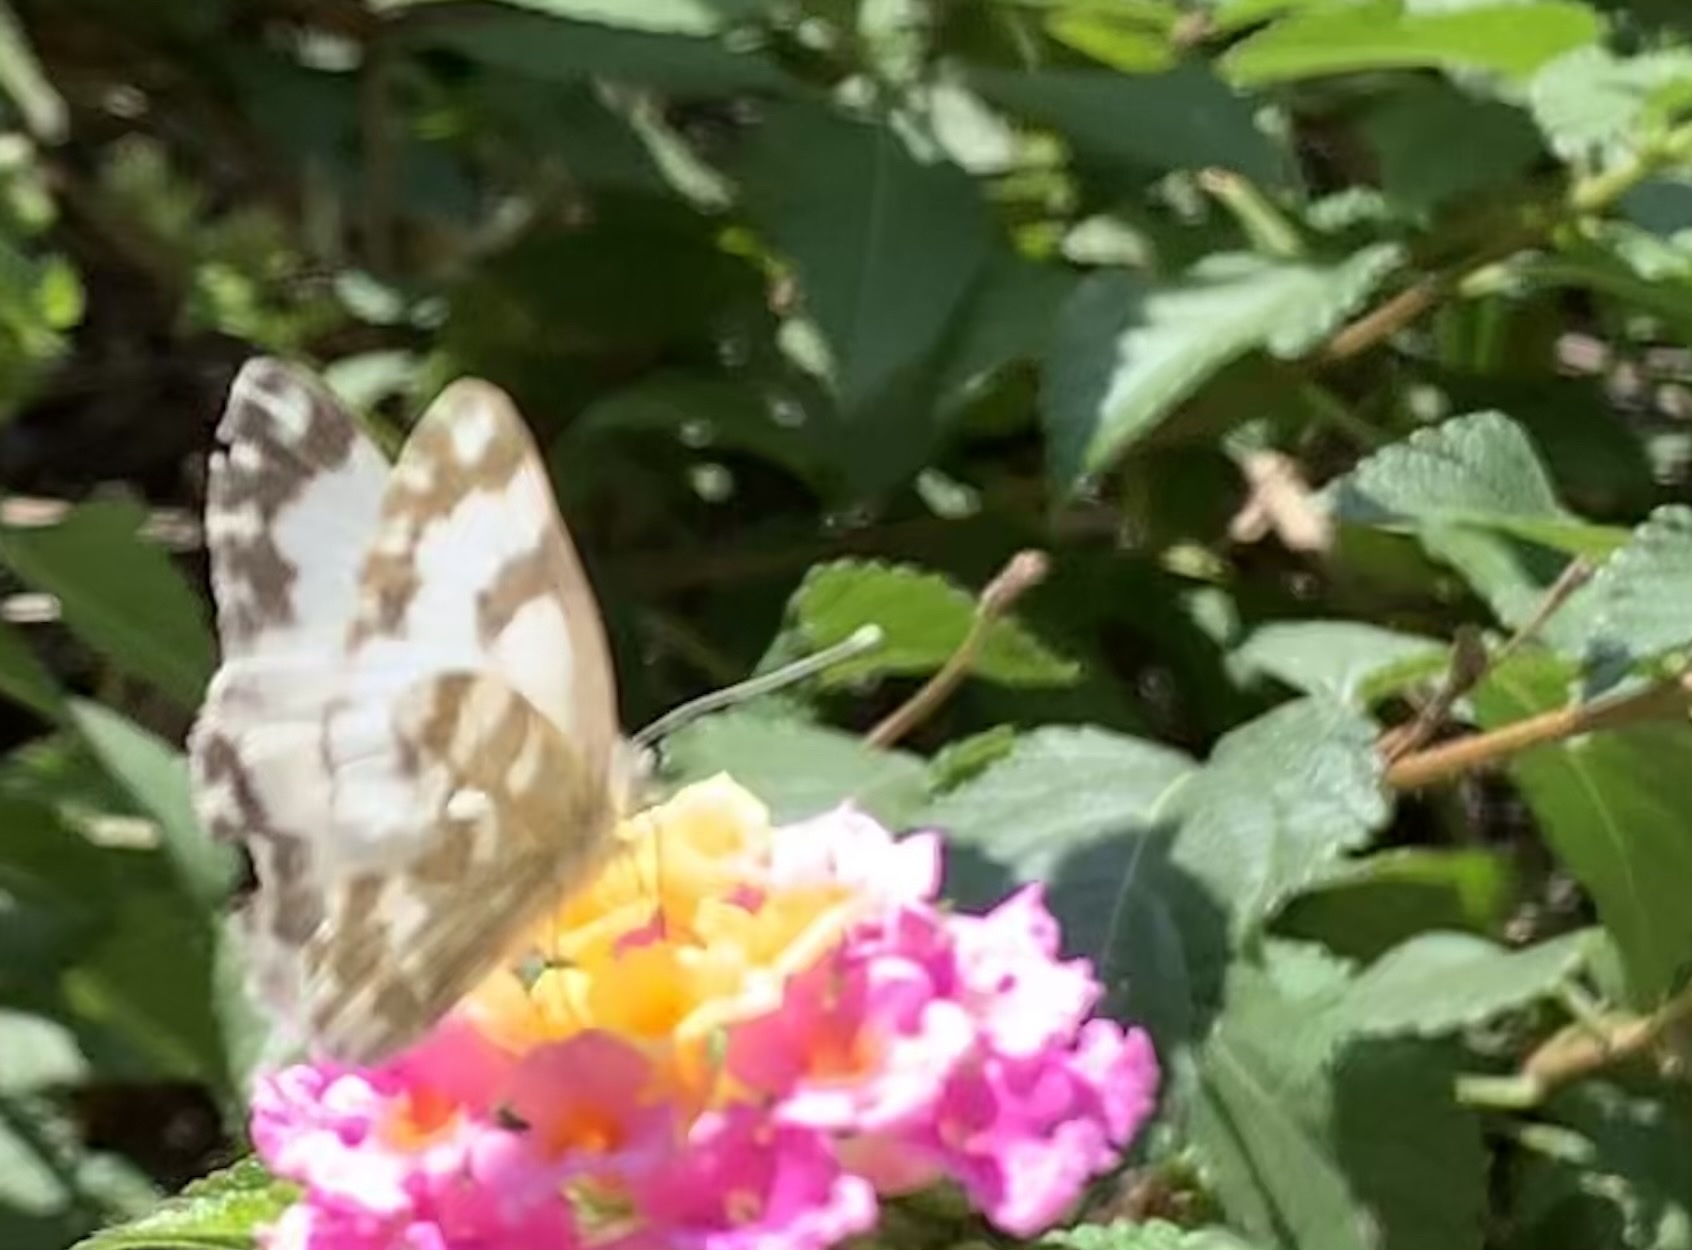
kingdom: Animalia
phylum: Arthropoda
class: Insecta
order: Lepidoptera
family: Pieridae
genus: Pontia
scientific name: Pontia edusa
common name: Eastern bath white
